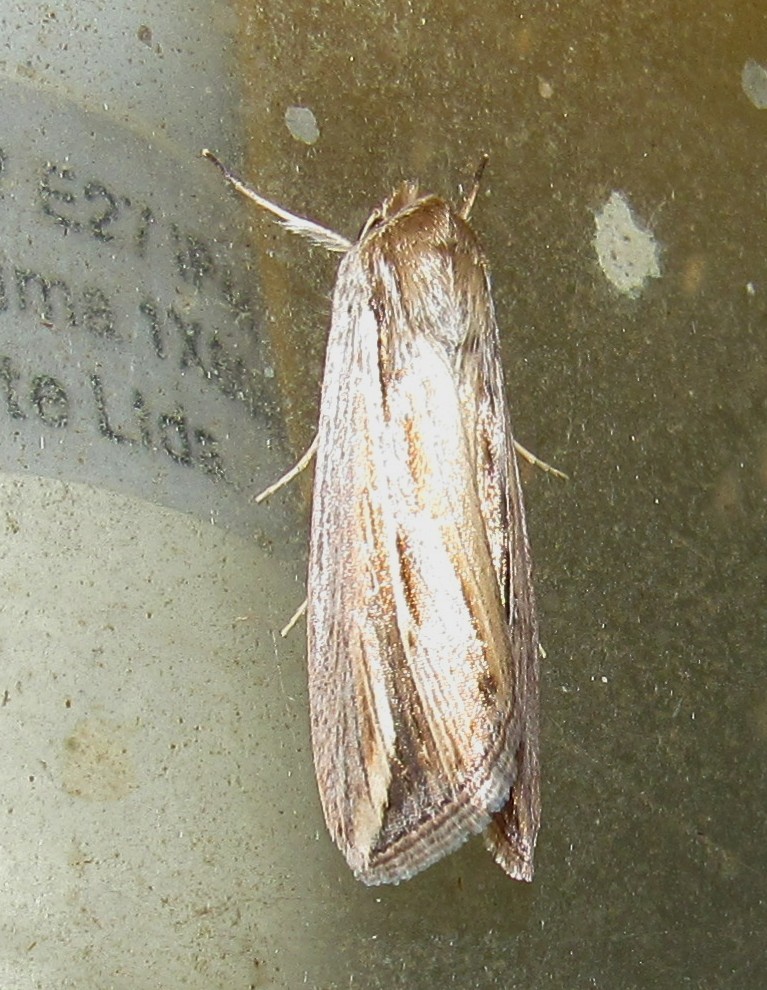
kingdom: Animalia
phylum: Arthropoda
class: Insecta
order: Lepidoptera
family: Noctuidae
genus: Dargida
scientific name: Dargida albilinea
